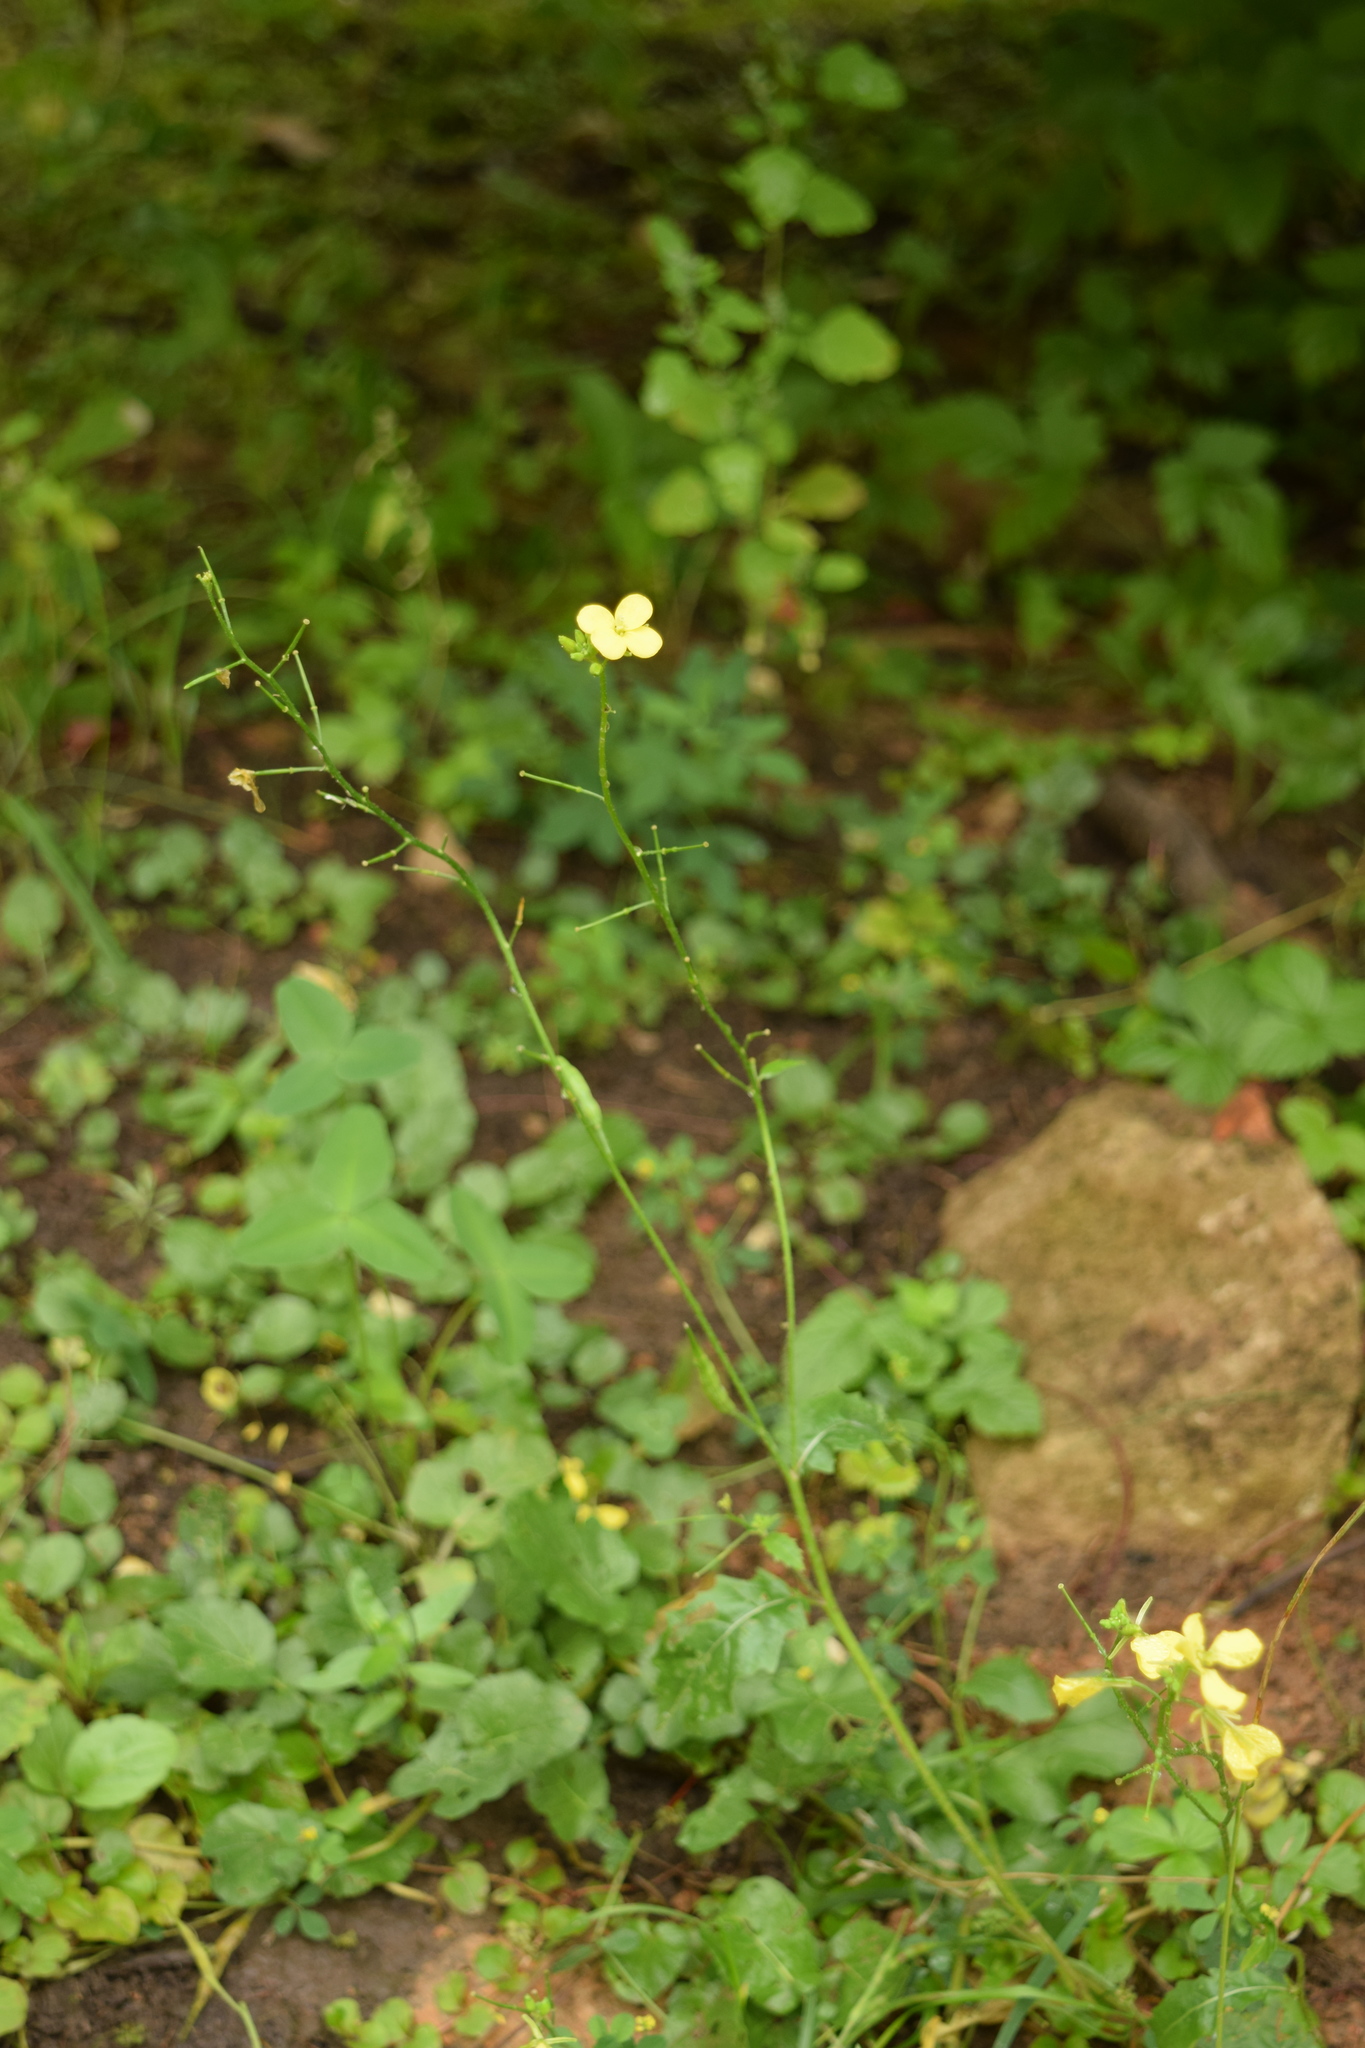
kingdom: Plantae
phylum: Tracheophyta
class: Magnoliopsida
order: Brassicales
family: Brassicaceae
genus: Sinapis
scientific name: Sinapis arvensis
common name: Charlock
